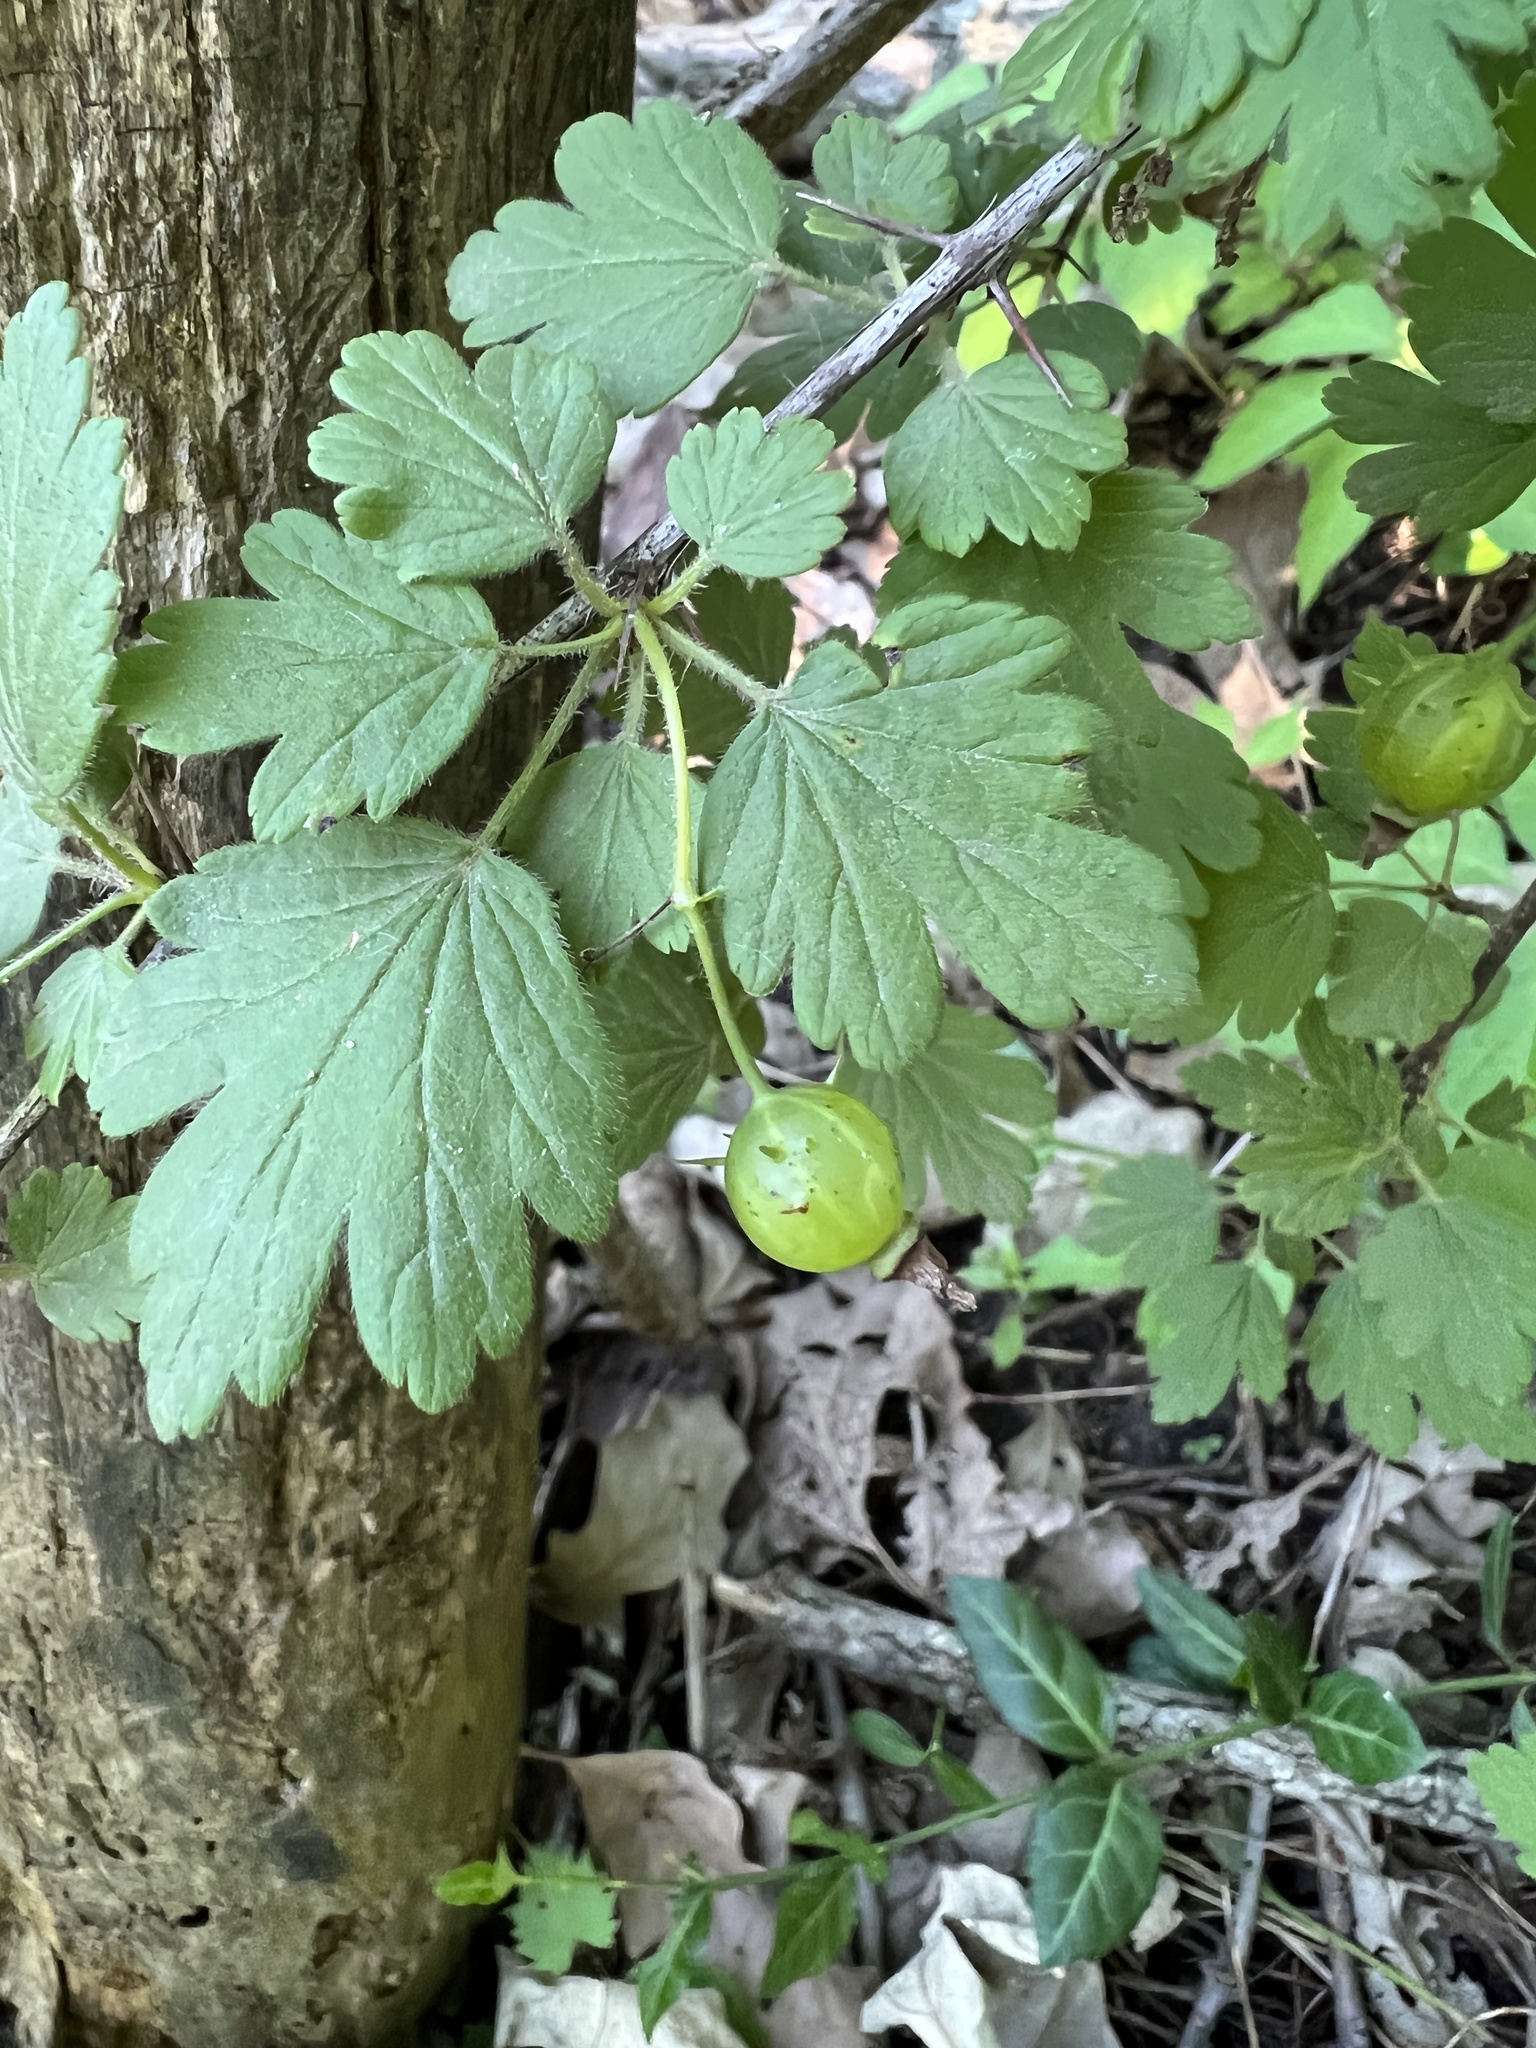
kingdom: Plantae
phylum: Tracheophyta
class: Magnoliopsida
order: Saxifragales
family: Grossulariaceae
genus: Ribes
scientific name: Ribes cynosbati
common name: American gooseberry
